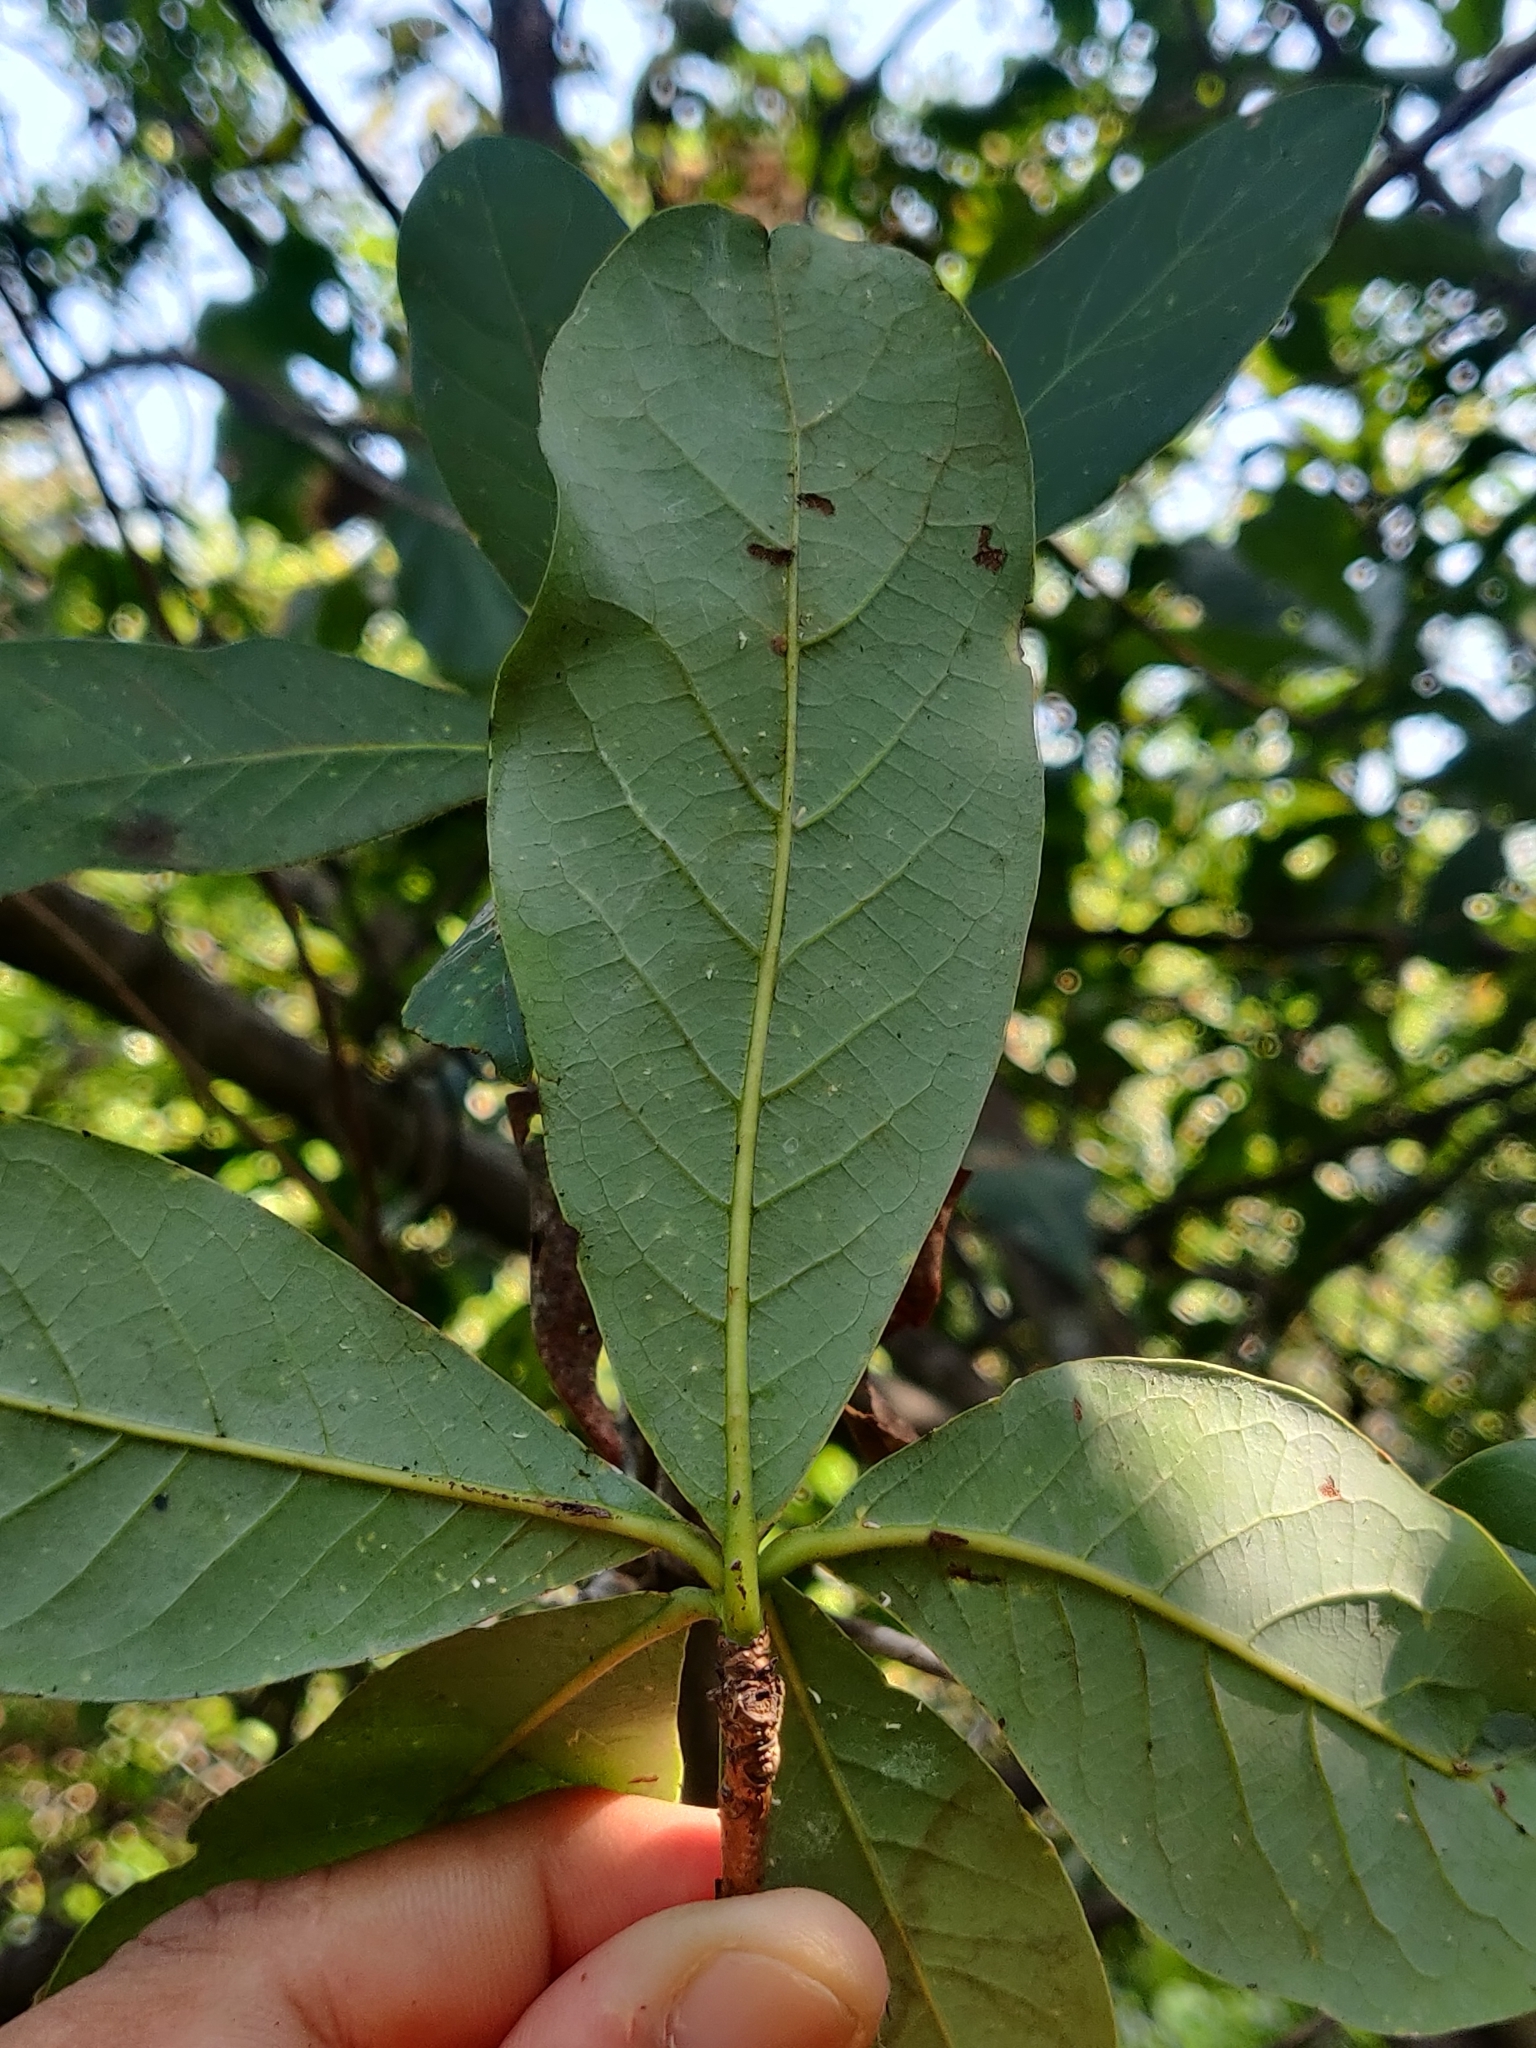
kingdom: Plantae
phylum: Tracheophyta
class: Magnoliopsida
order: Laurales
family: Lauraceae
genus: Litsea
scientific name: Litsea ghatica
